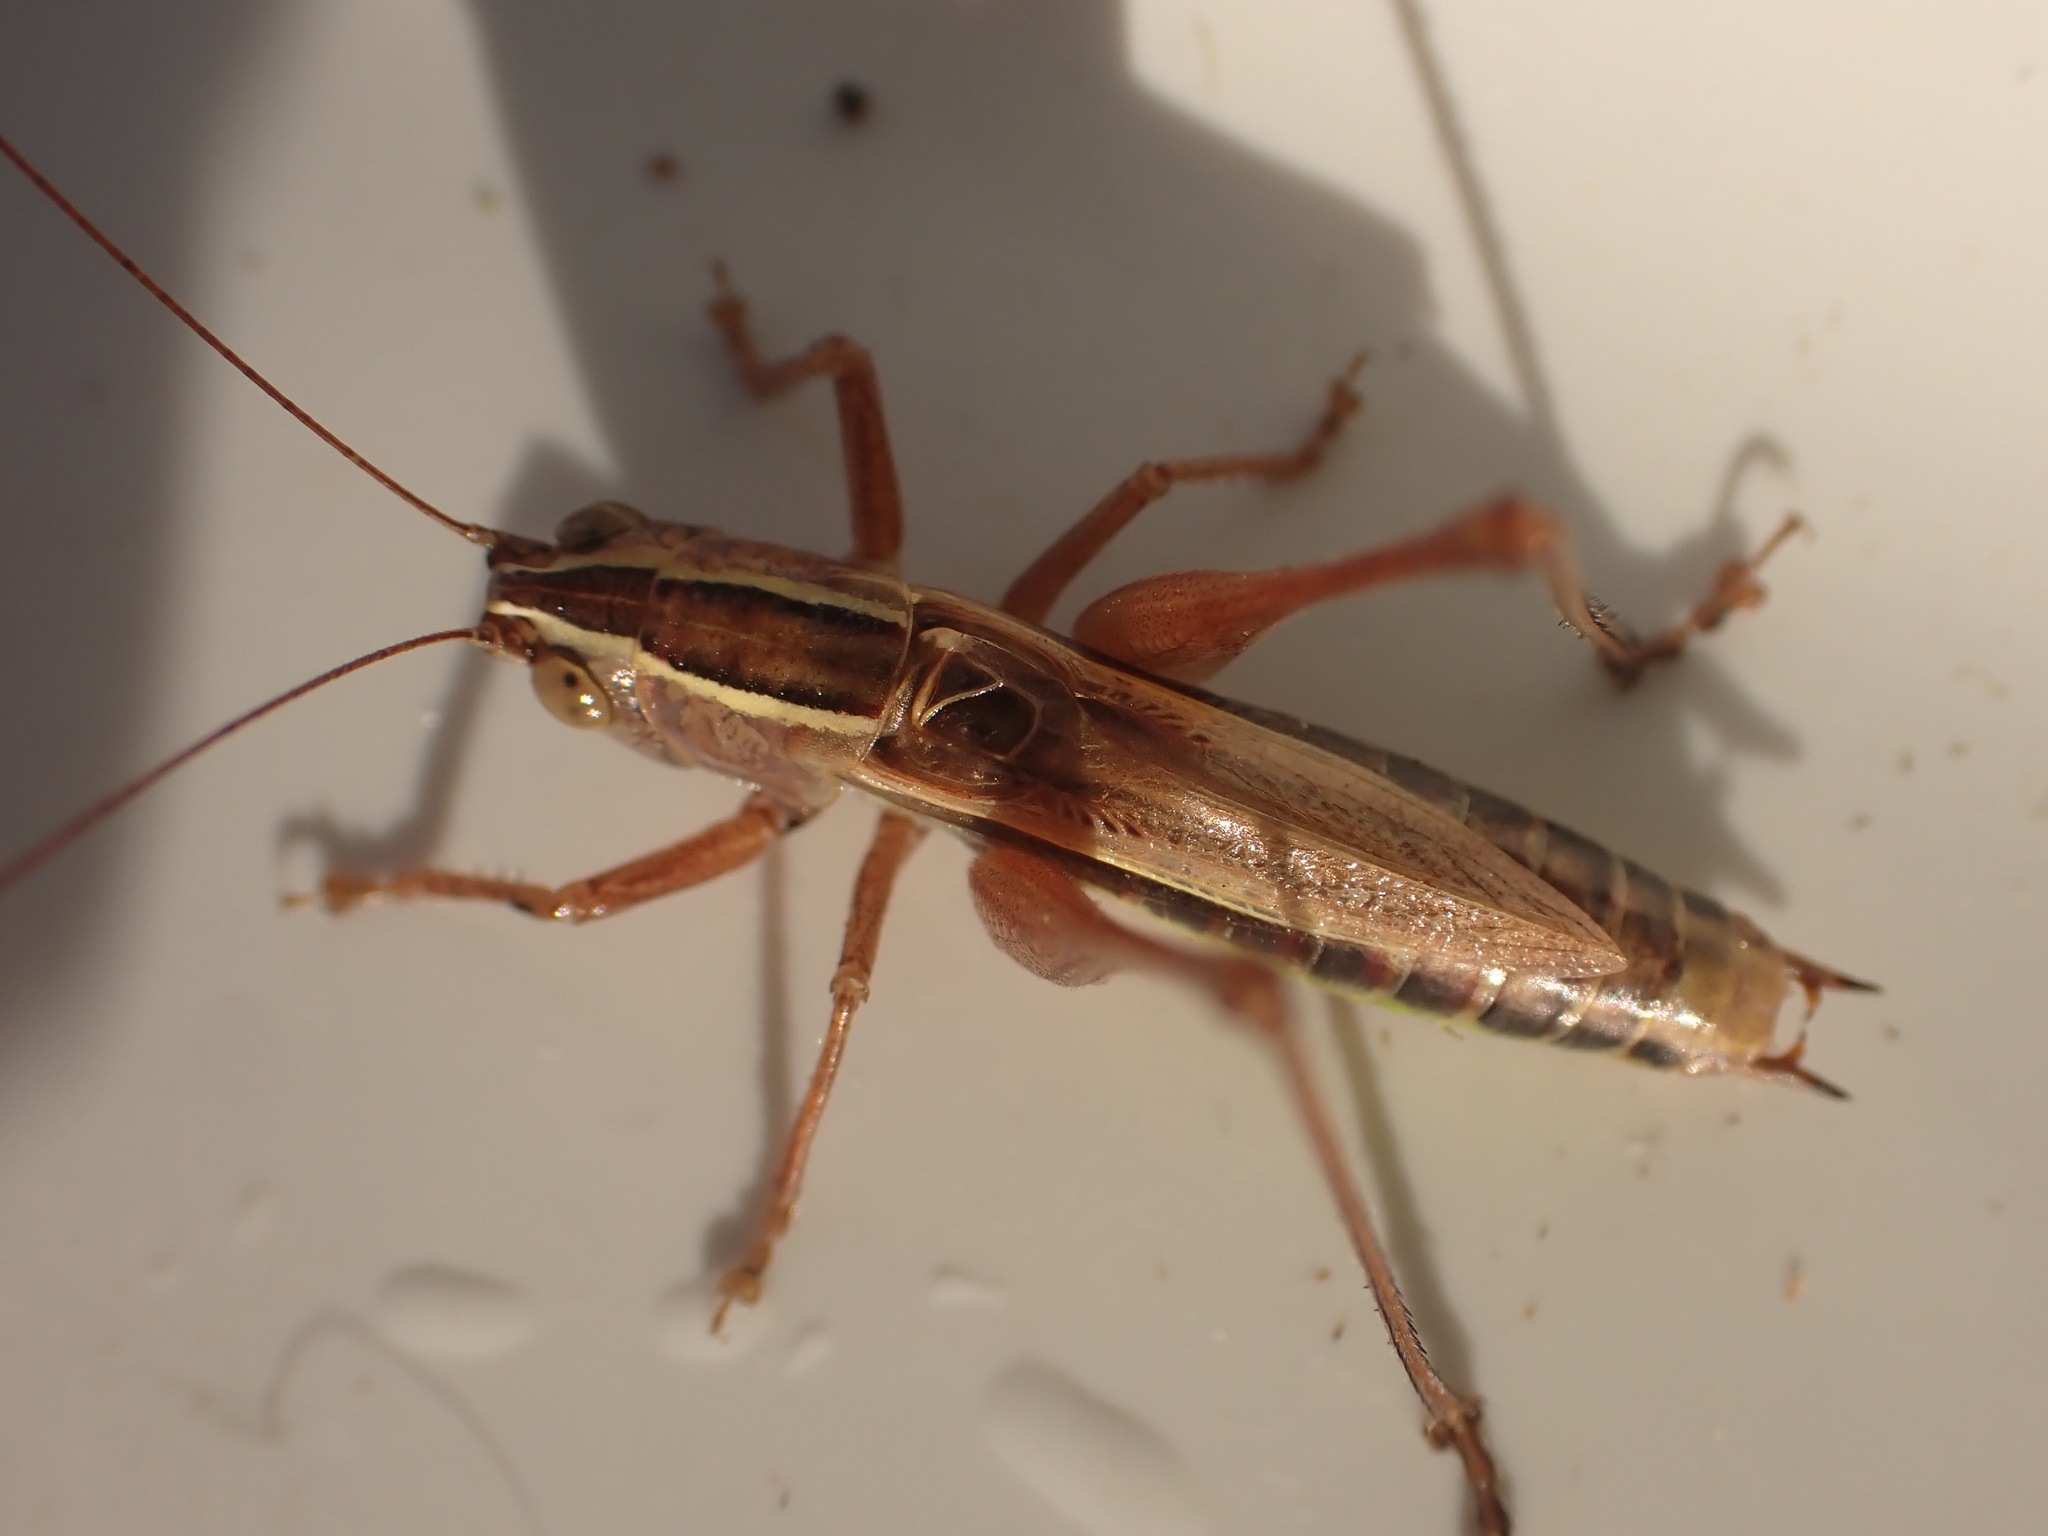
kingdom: Animalia
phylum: Arthropoda
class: Insecta
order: Orthoptera
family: Tettigoniidae
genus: Conocephalus
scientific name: Conocephalus albescens
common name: Whitish meadow katydid
